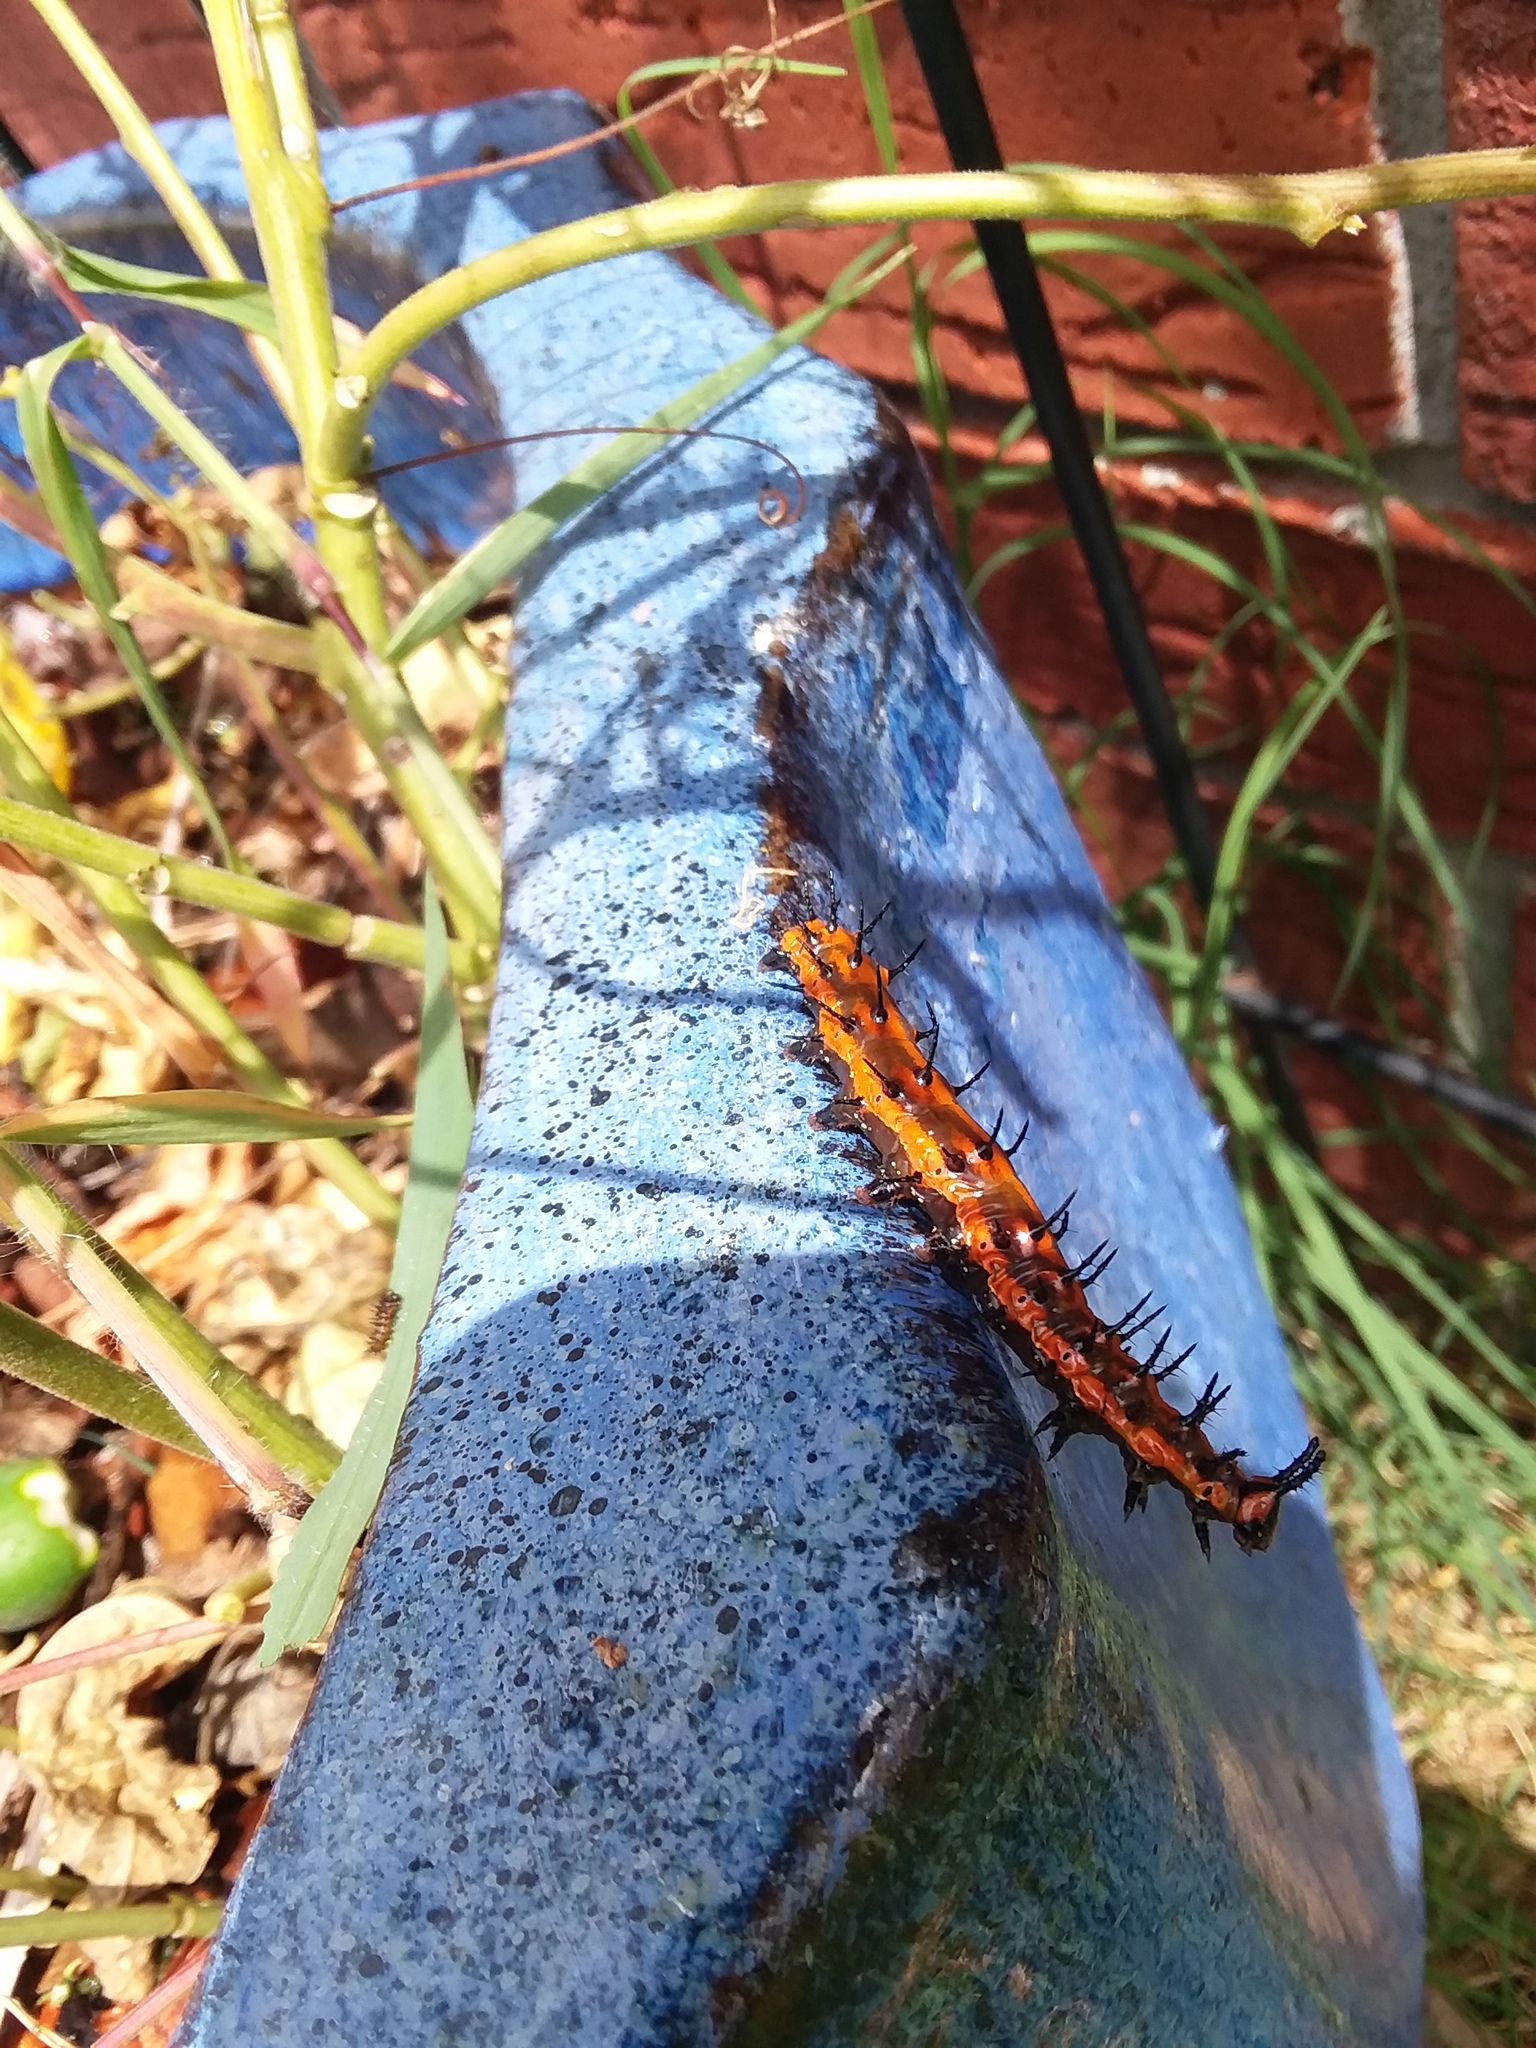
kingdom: Animalia
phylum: Arthropoda
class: Insecta
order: Lepidoptera
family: Nymphalidae
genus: Dione
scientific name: Dione vanillae
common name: Gulf fritillary
